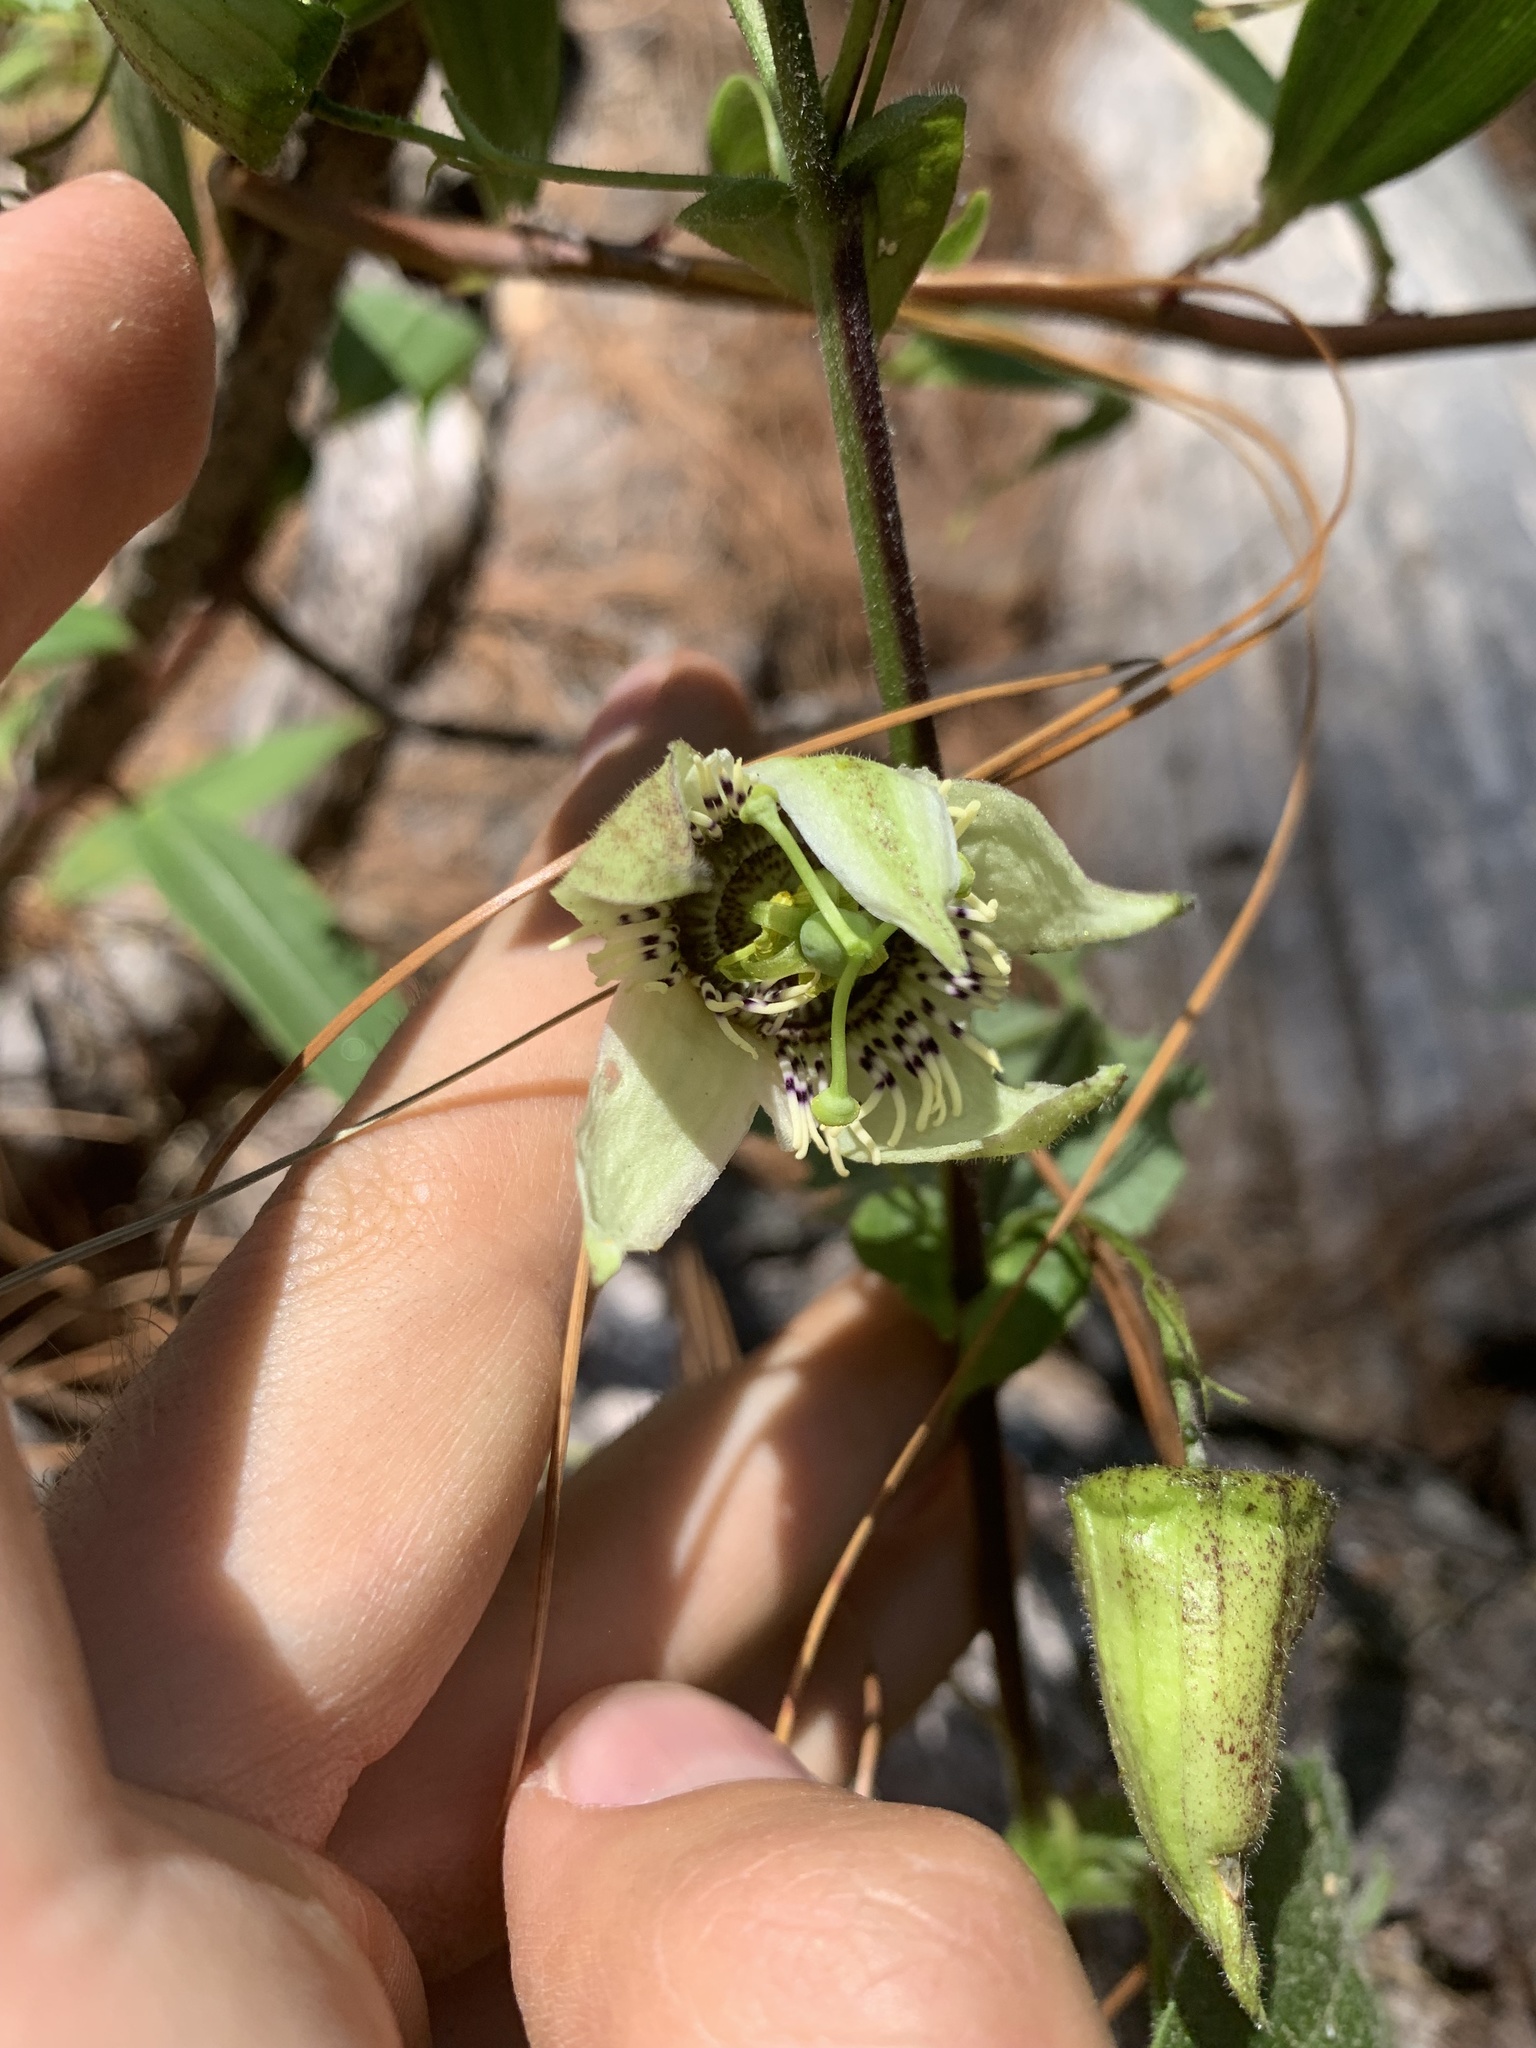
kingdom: Plantae
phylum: Tracheophyta
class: Magnoliopsida
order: Malpighiales
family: Passifloraceae
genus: Passiflora
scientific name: Passiflora oaxacensis
